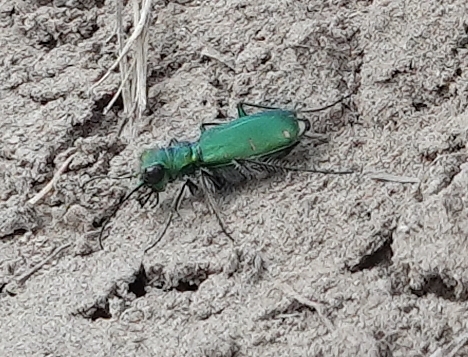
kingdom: Animalia
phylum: Arthropoda
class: Insecta
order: Coleoptera
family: Carabidae
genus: Cicindela
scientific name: Cicindela denverensis
